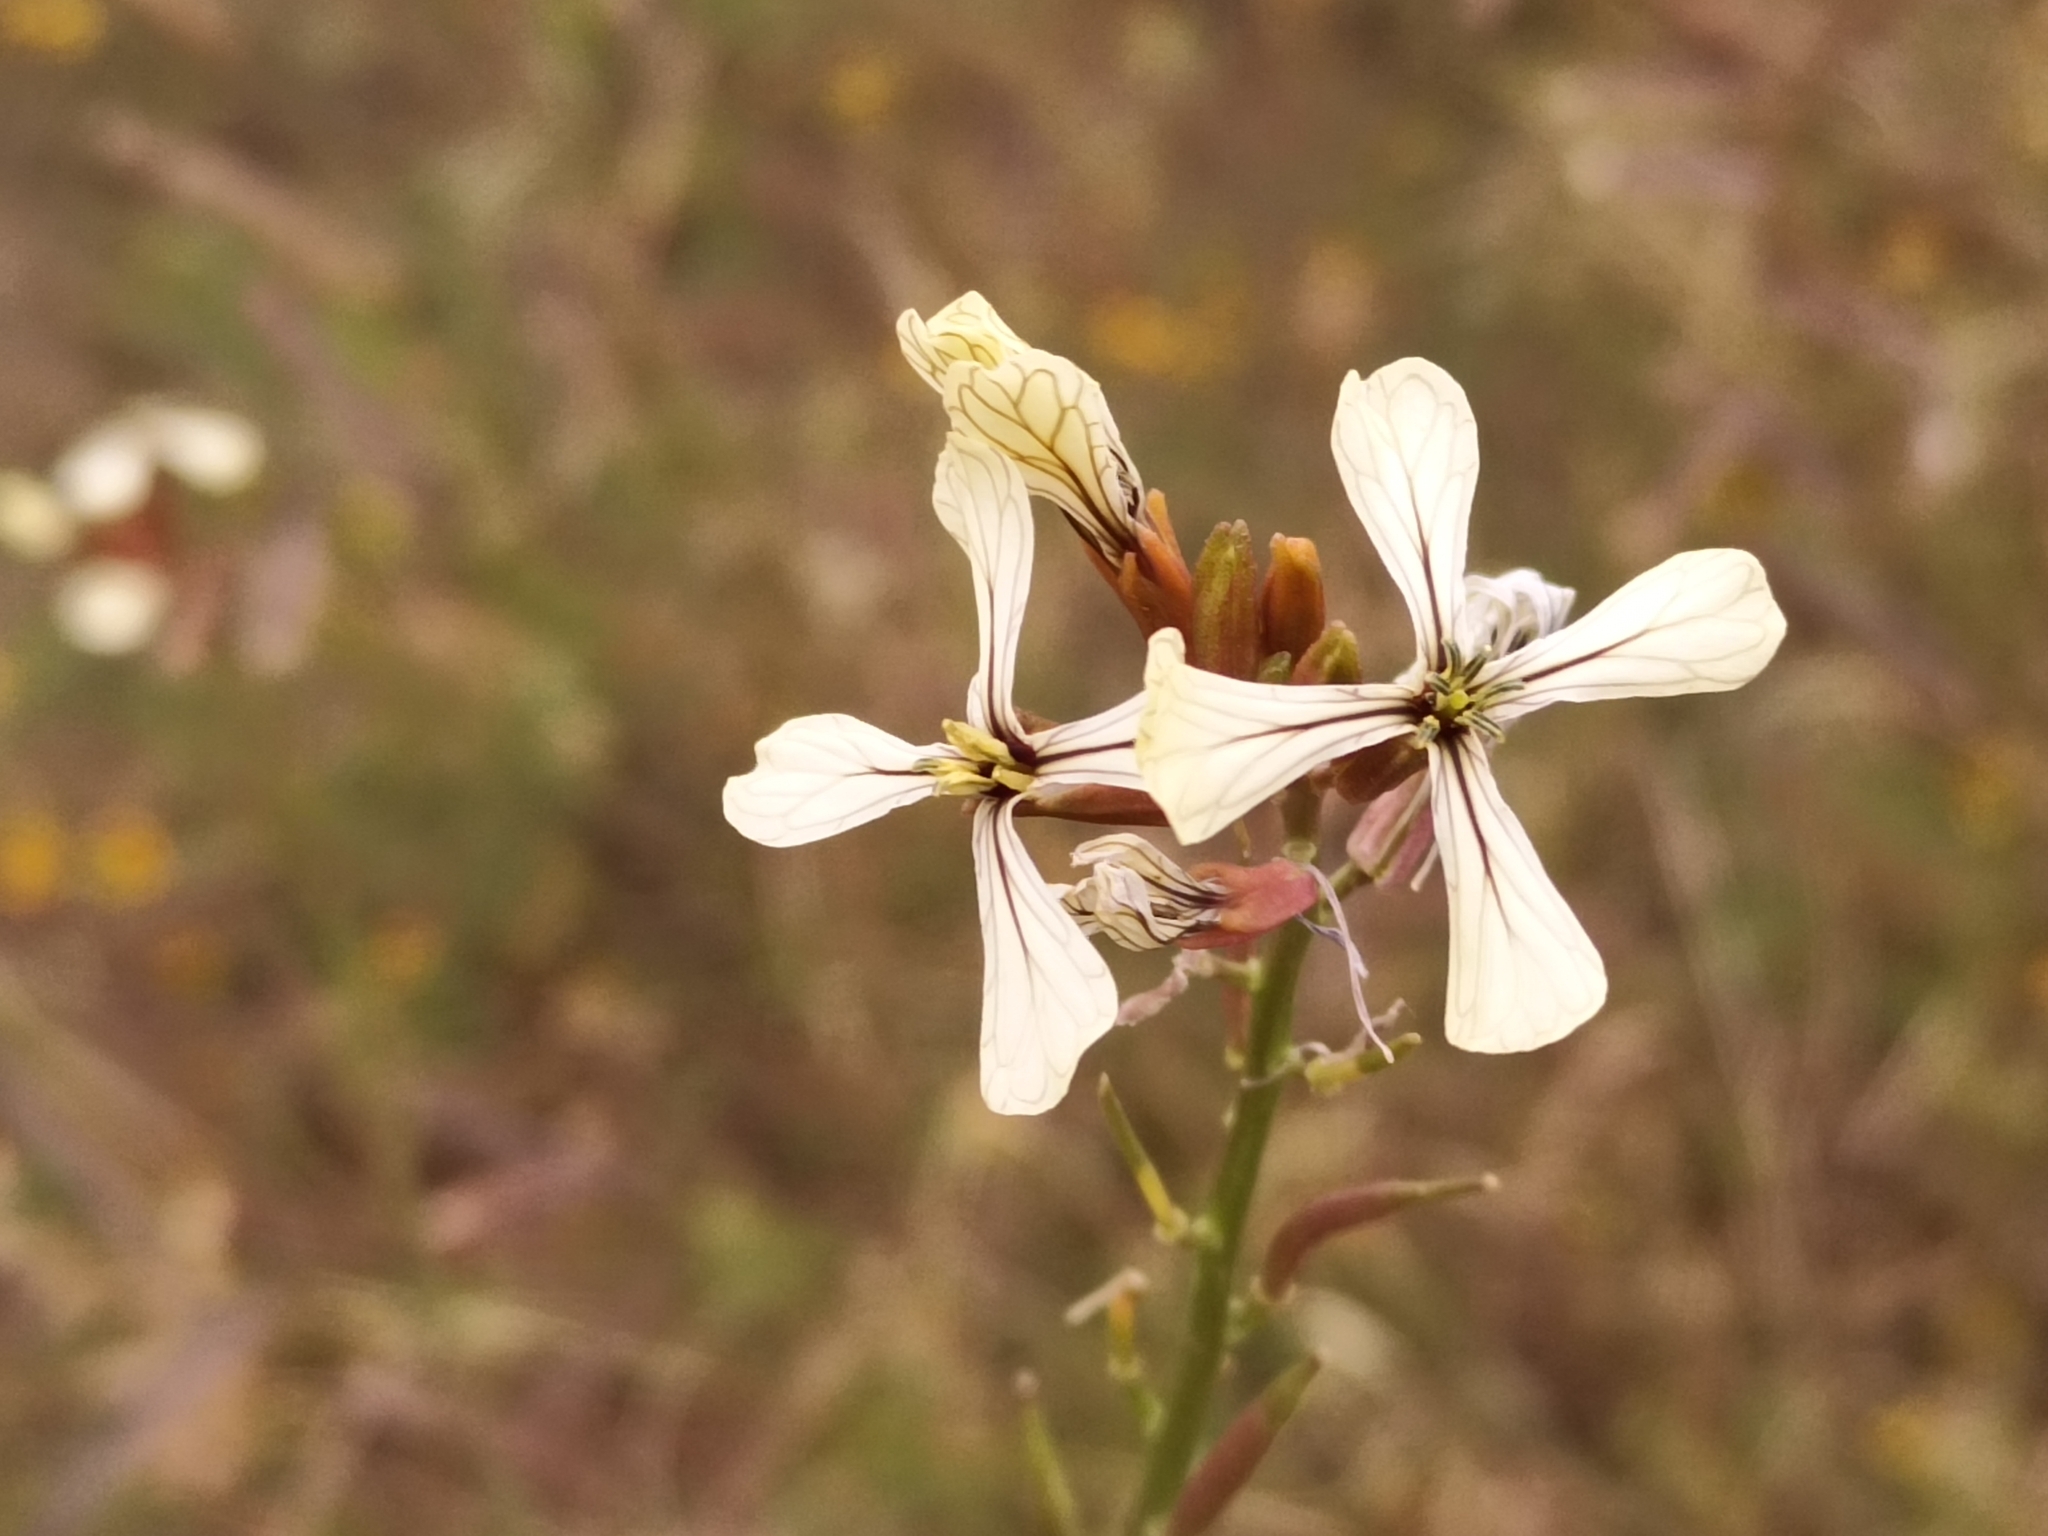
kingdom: Plantae
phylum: Tracheophyta
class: Magnoliopsida
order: Brassicales
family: Brassicaceae
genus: Eruca
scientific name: Eruca vesicaria
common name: Garden rocket
